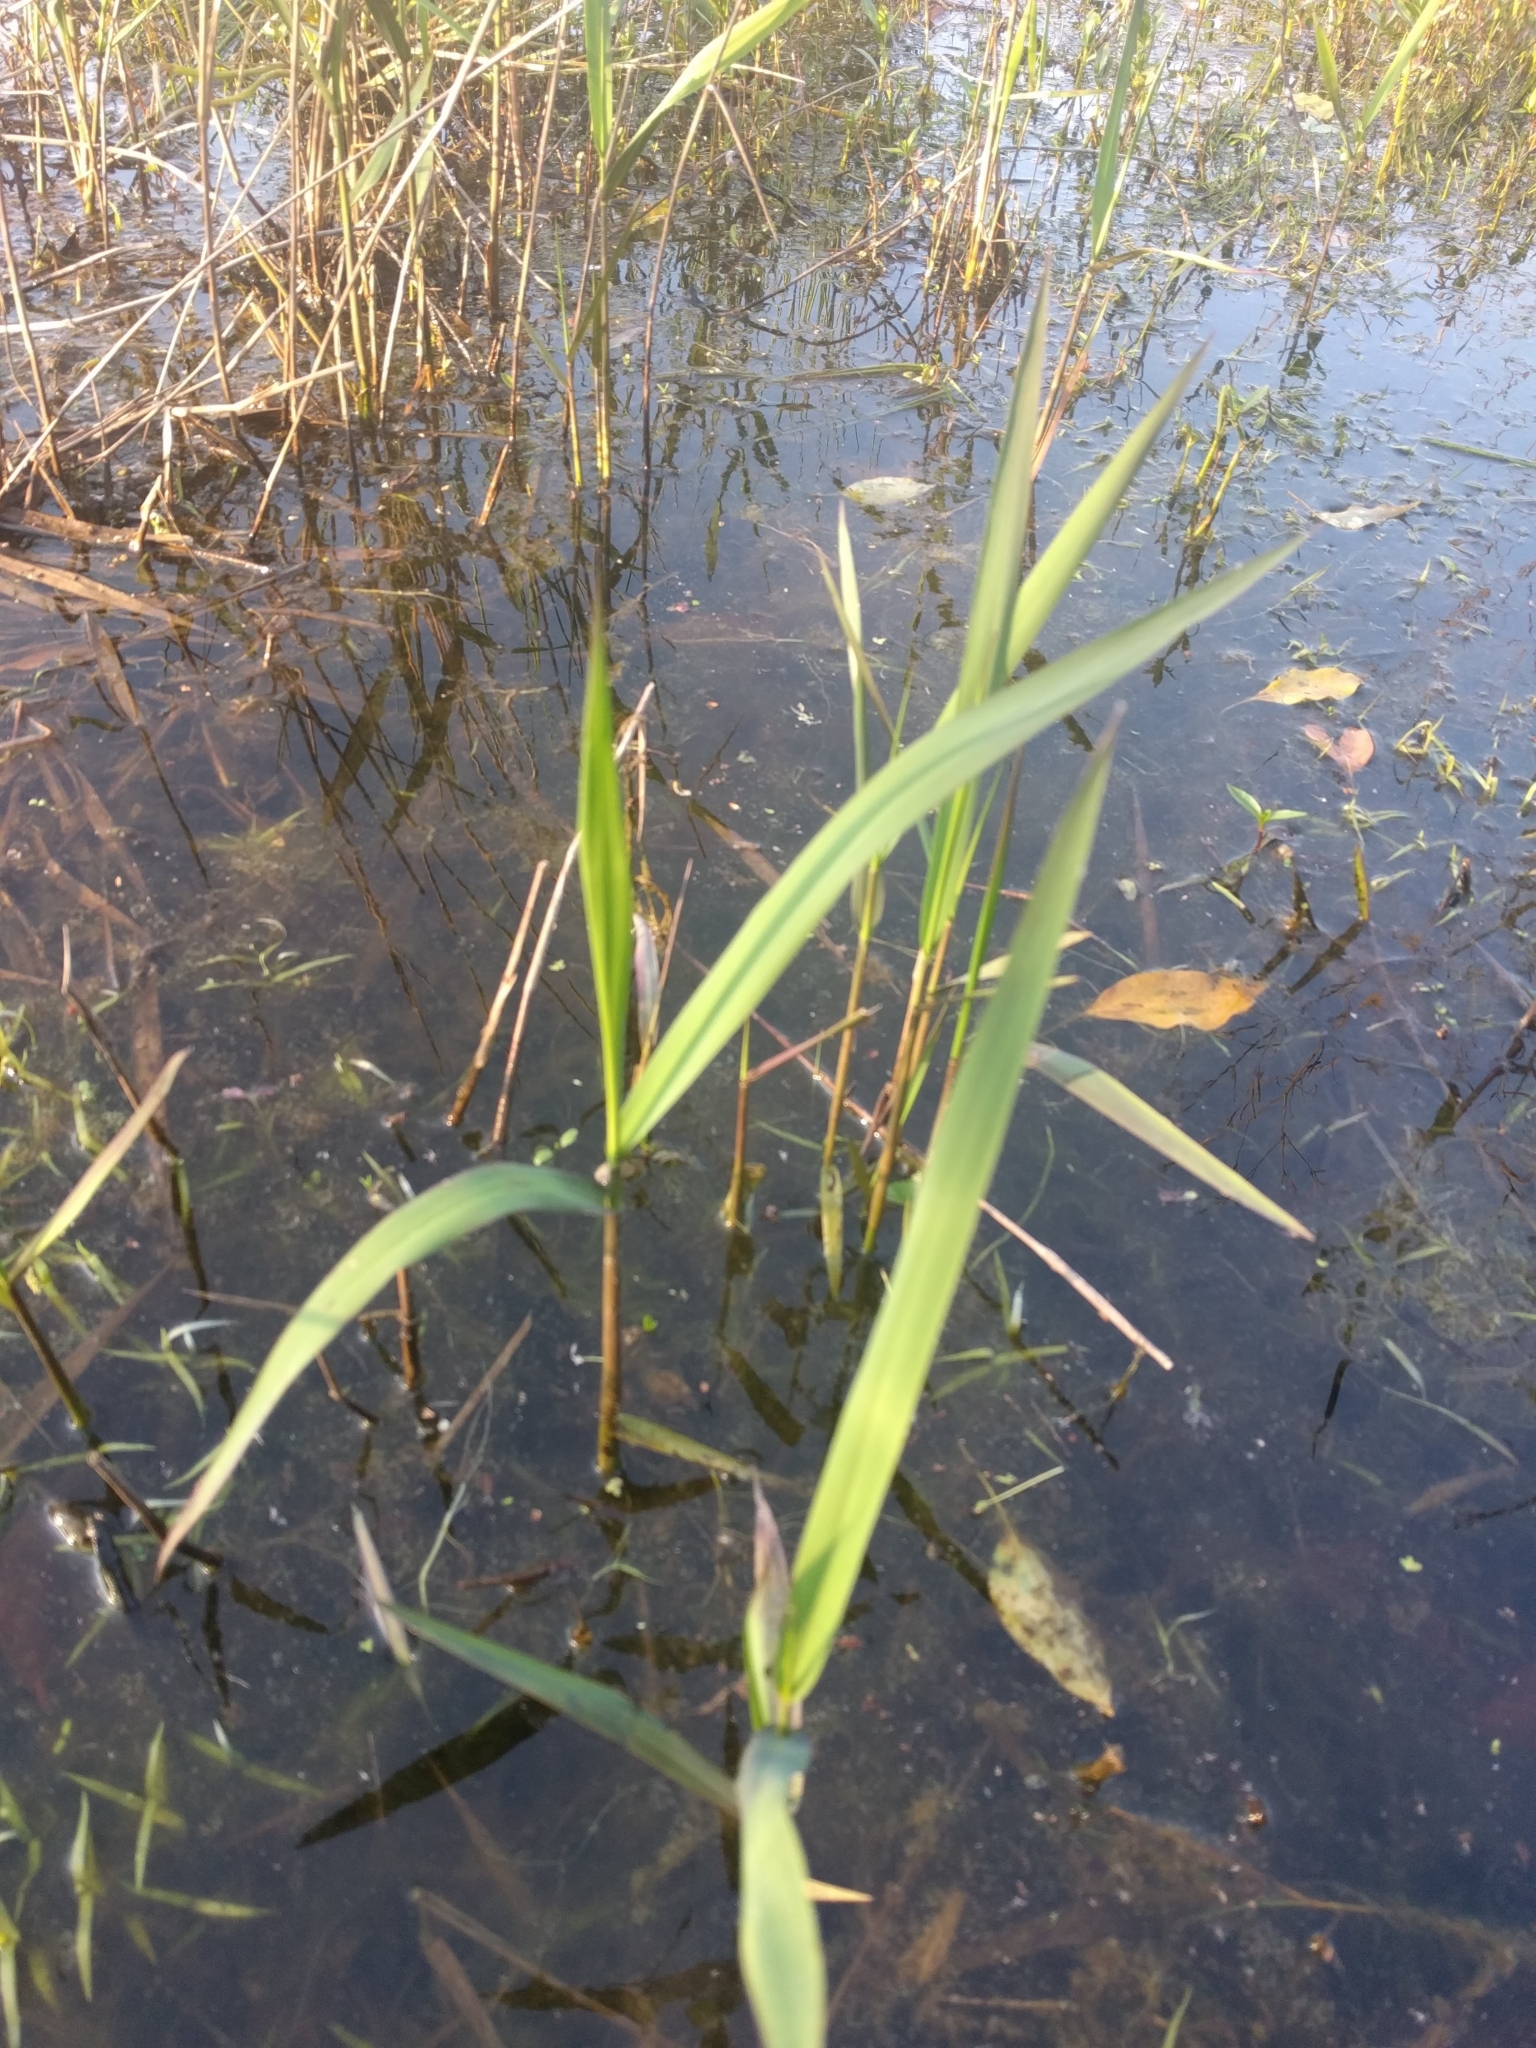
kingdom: Plantae
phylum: Tracheophyta
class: Liliopsida
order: Poales
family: Poaceae
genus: Phragmites
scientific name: Phragmites australis
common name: Common reed
